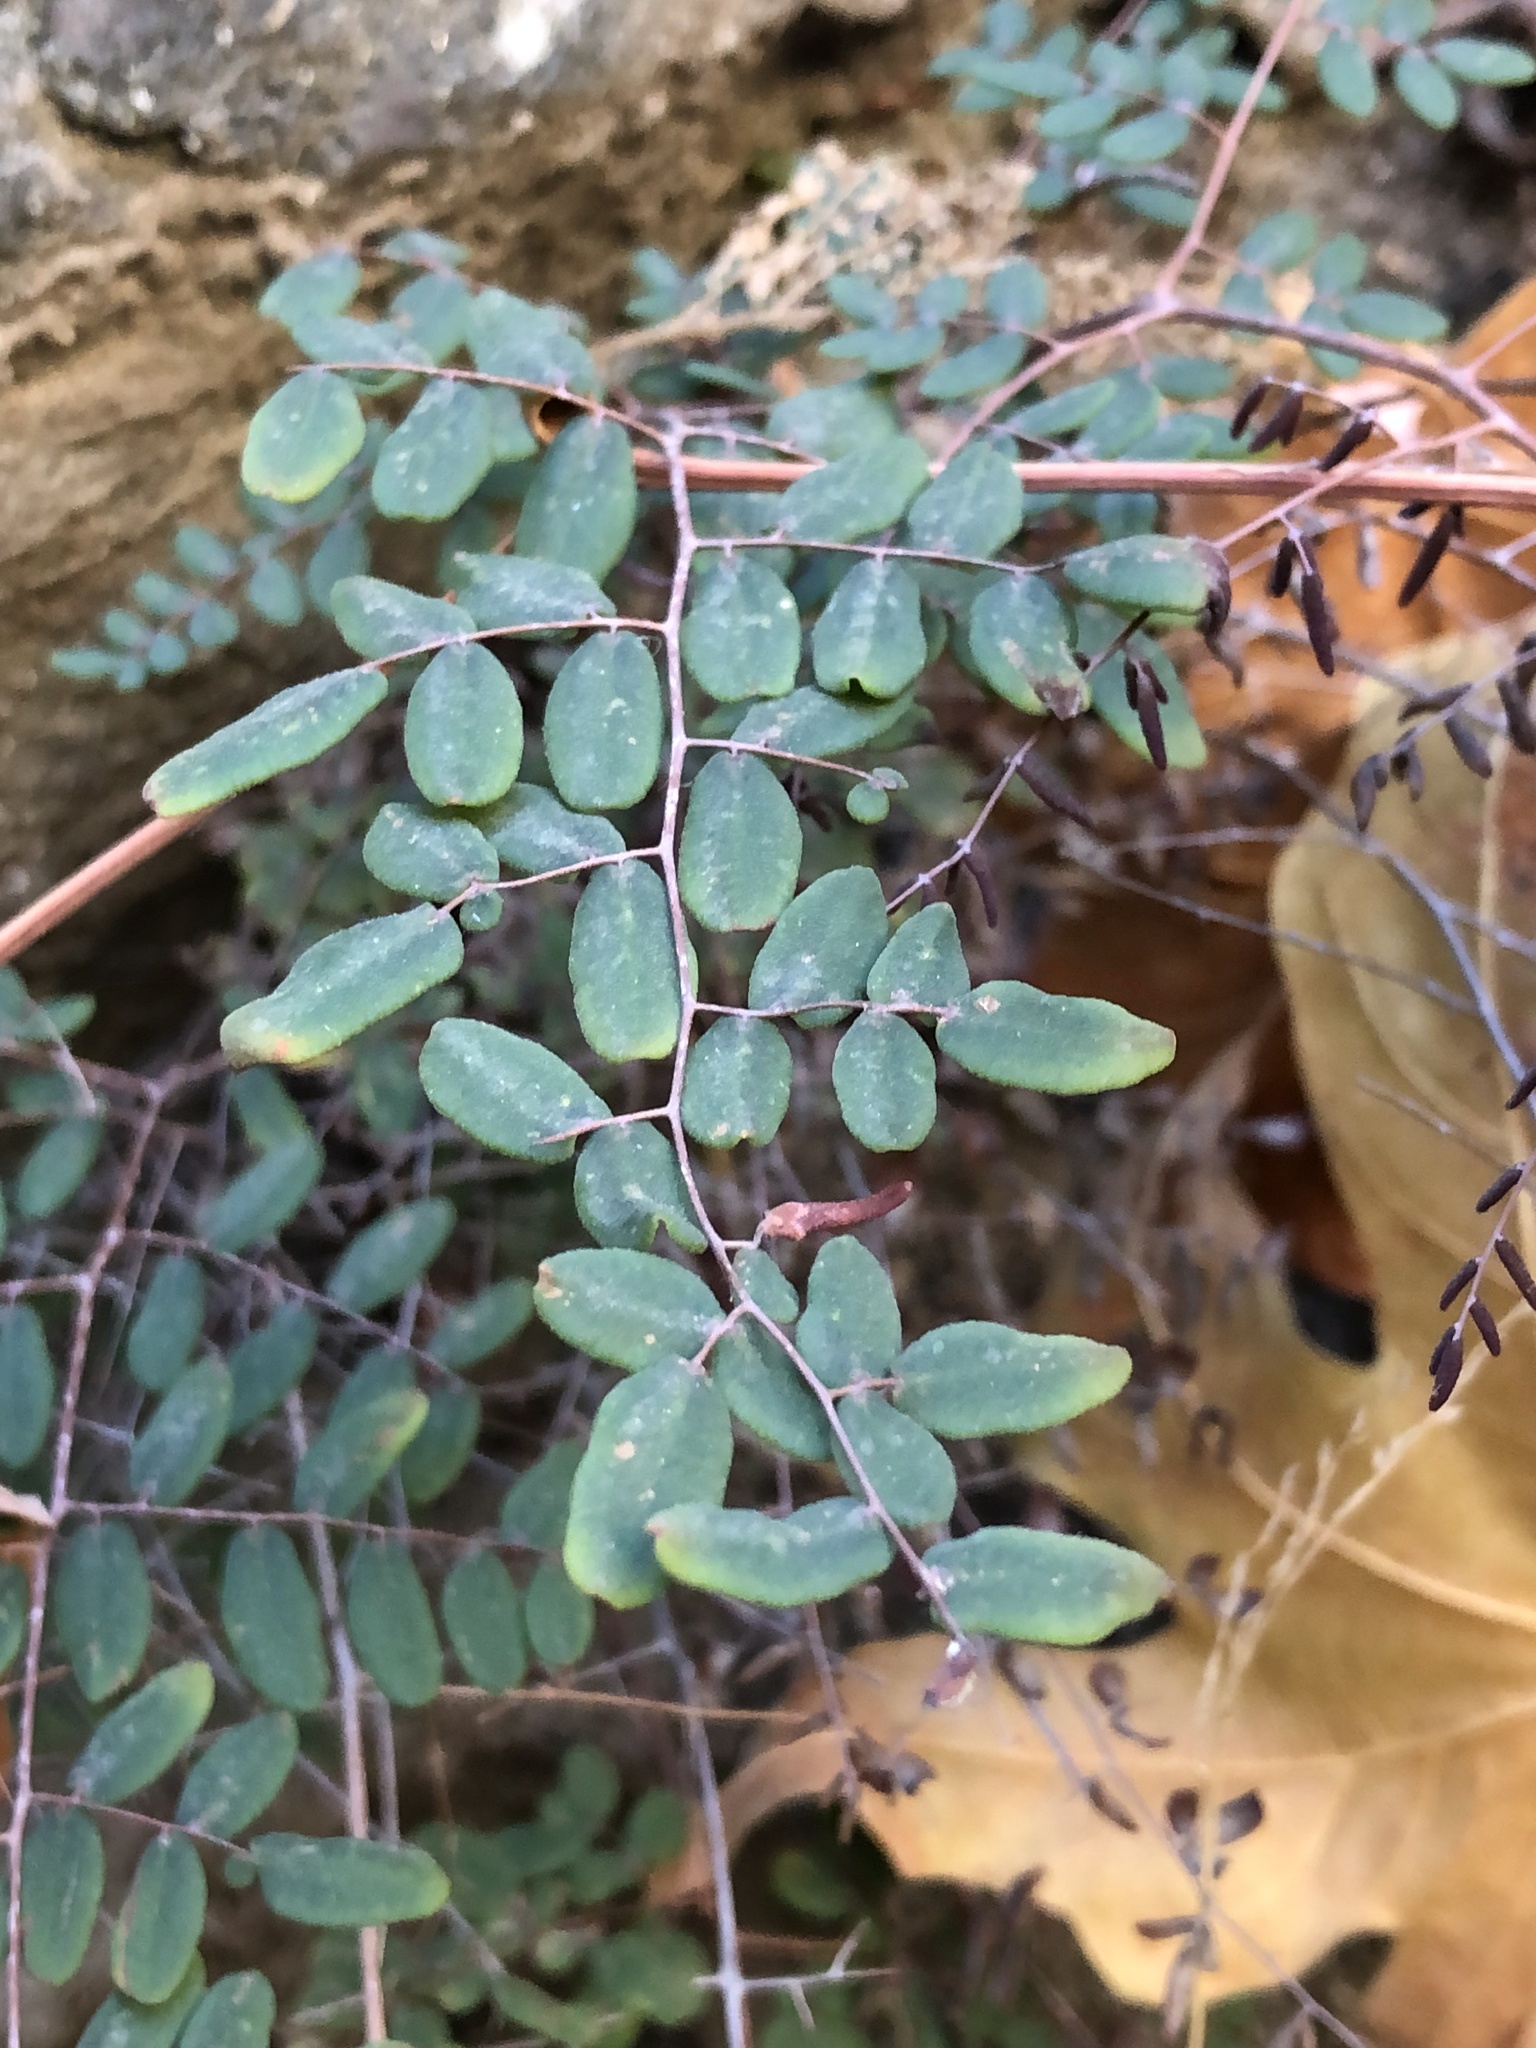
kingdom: Plantae
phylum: Tracheophyta
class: Polypodiopsida
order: Polypodiales
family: Pteridaceae
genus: Pellaea
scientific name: Pellaea andromedifolia
